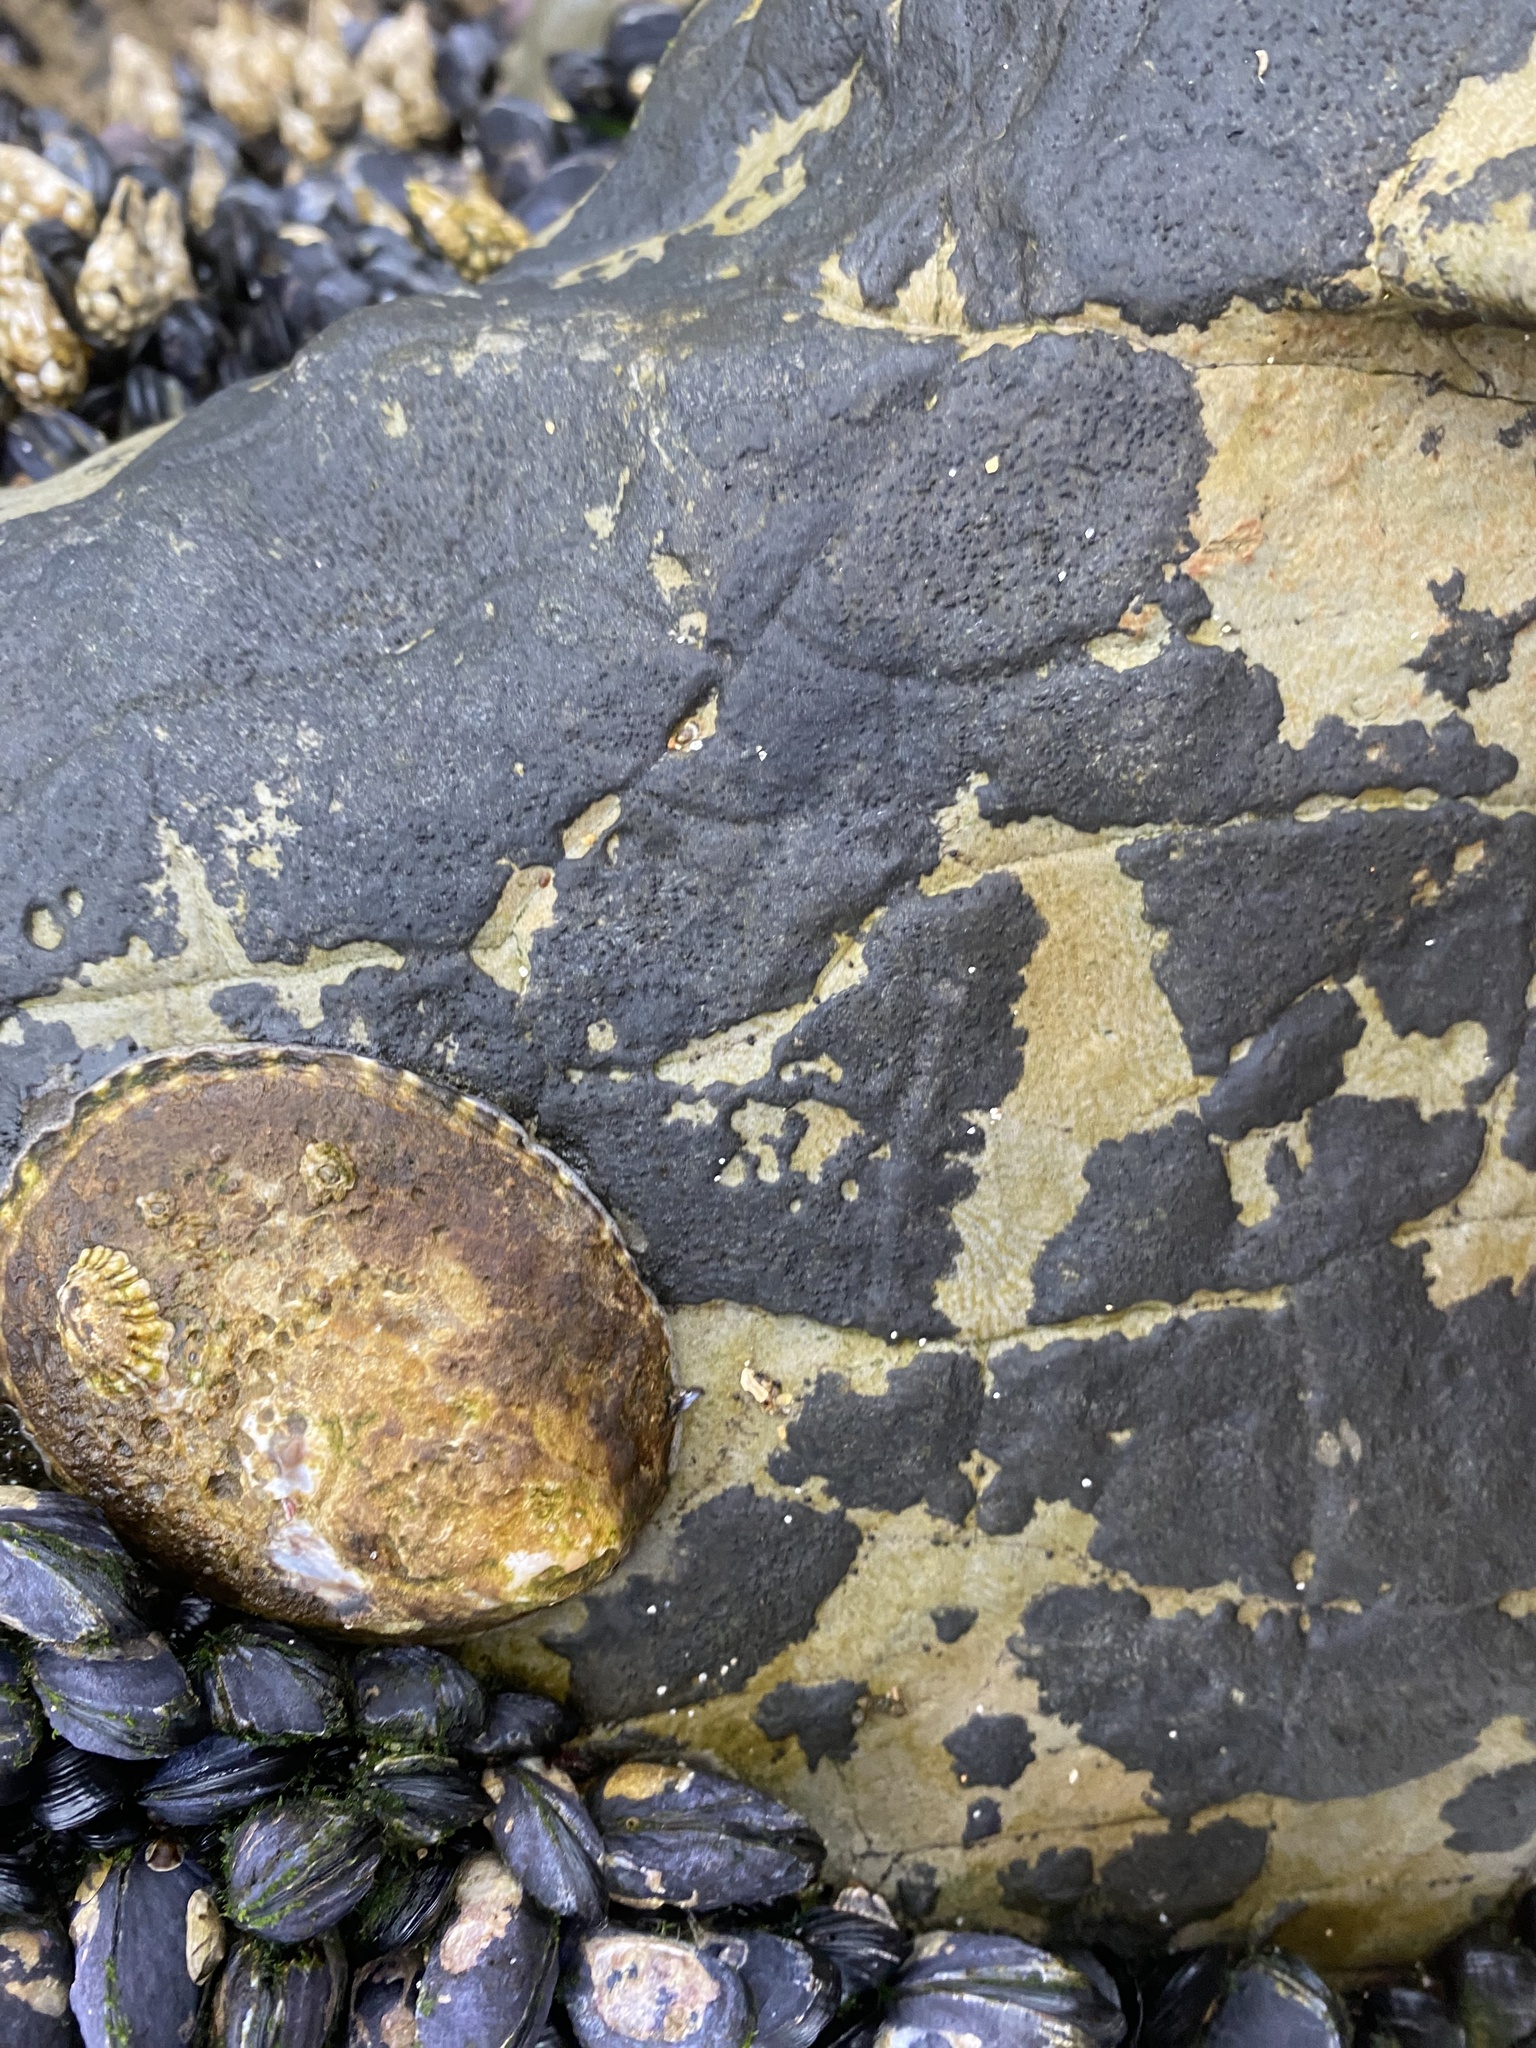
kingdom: Animalia
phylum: Mollusca
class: Gastropoda
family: Lottiidae
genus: Lottia
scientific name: Lottia gigantea
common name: Owl limpet
